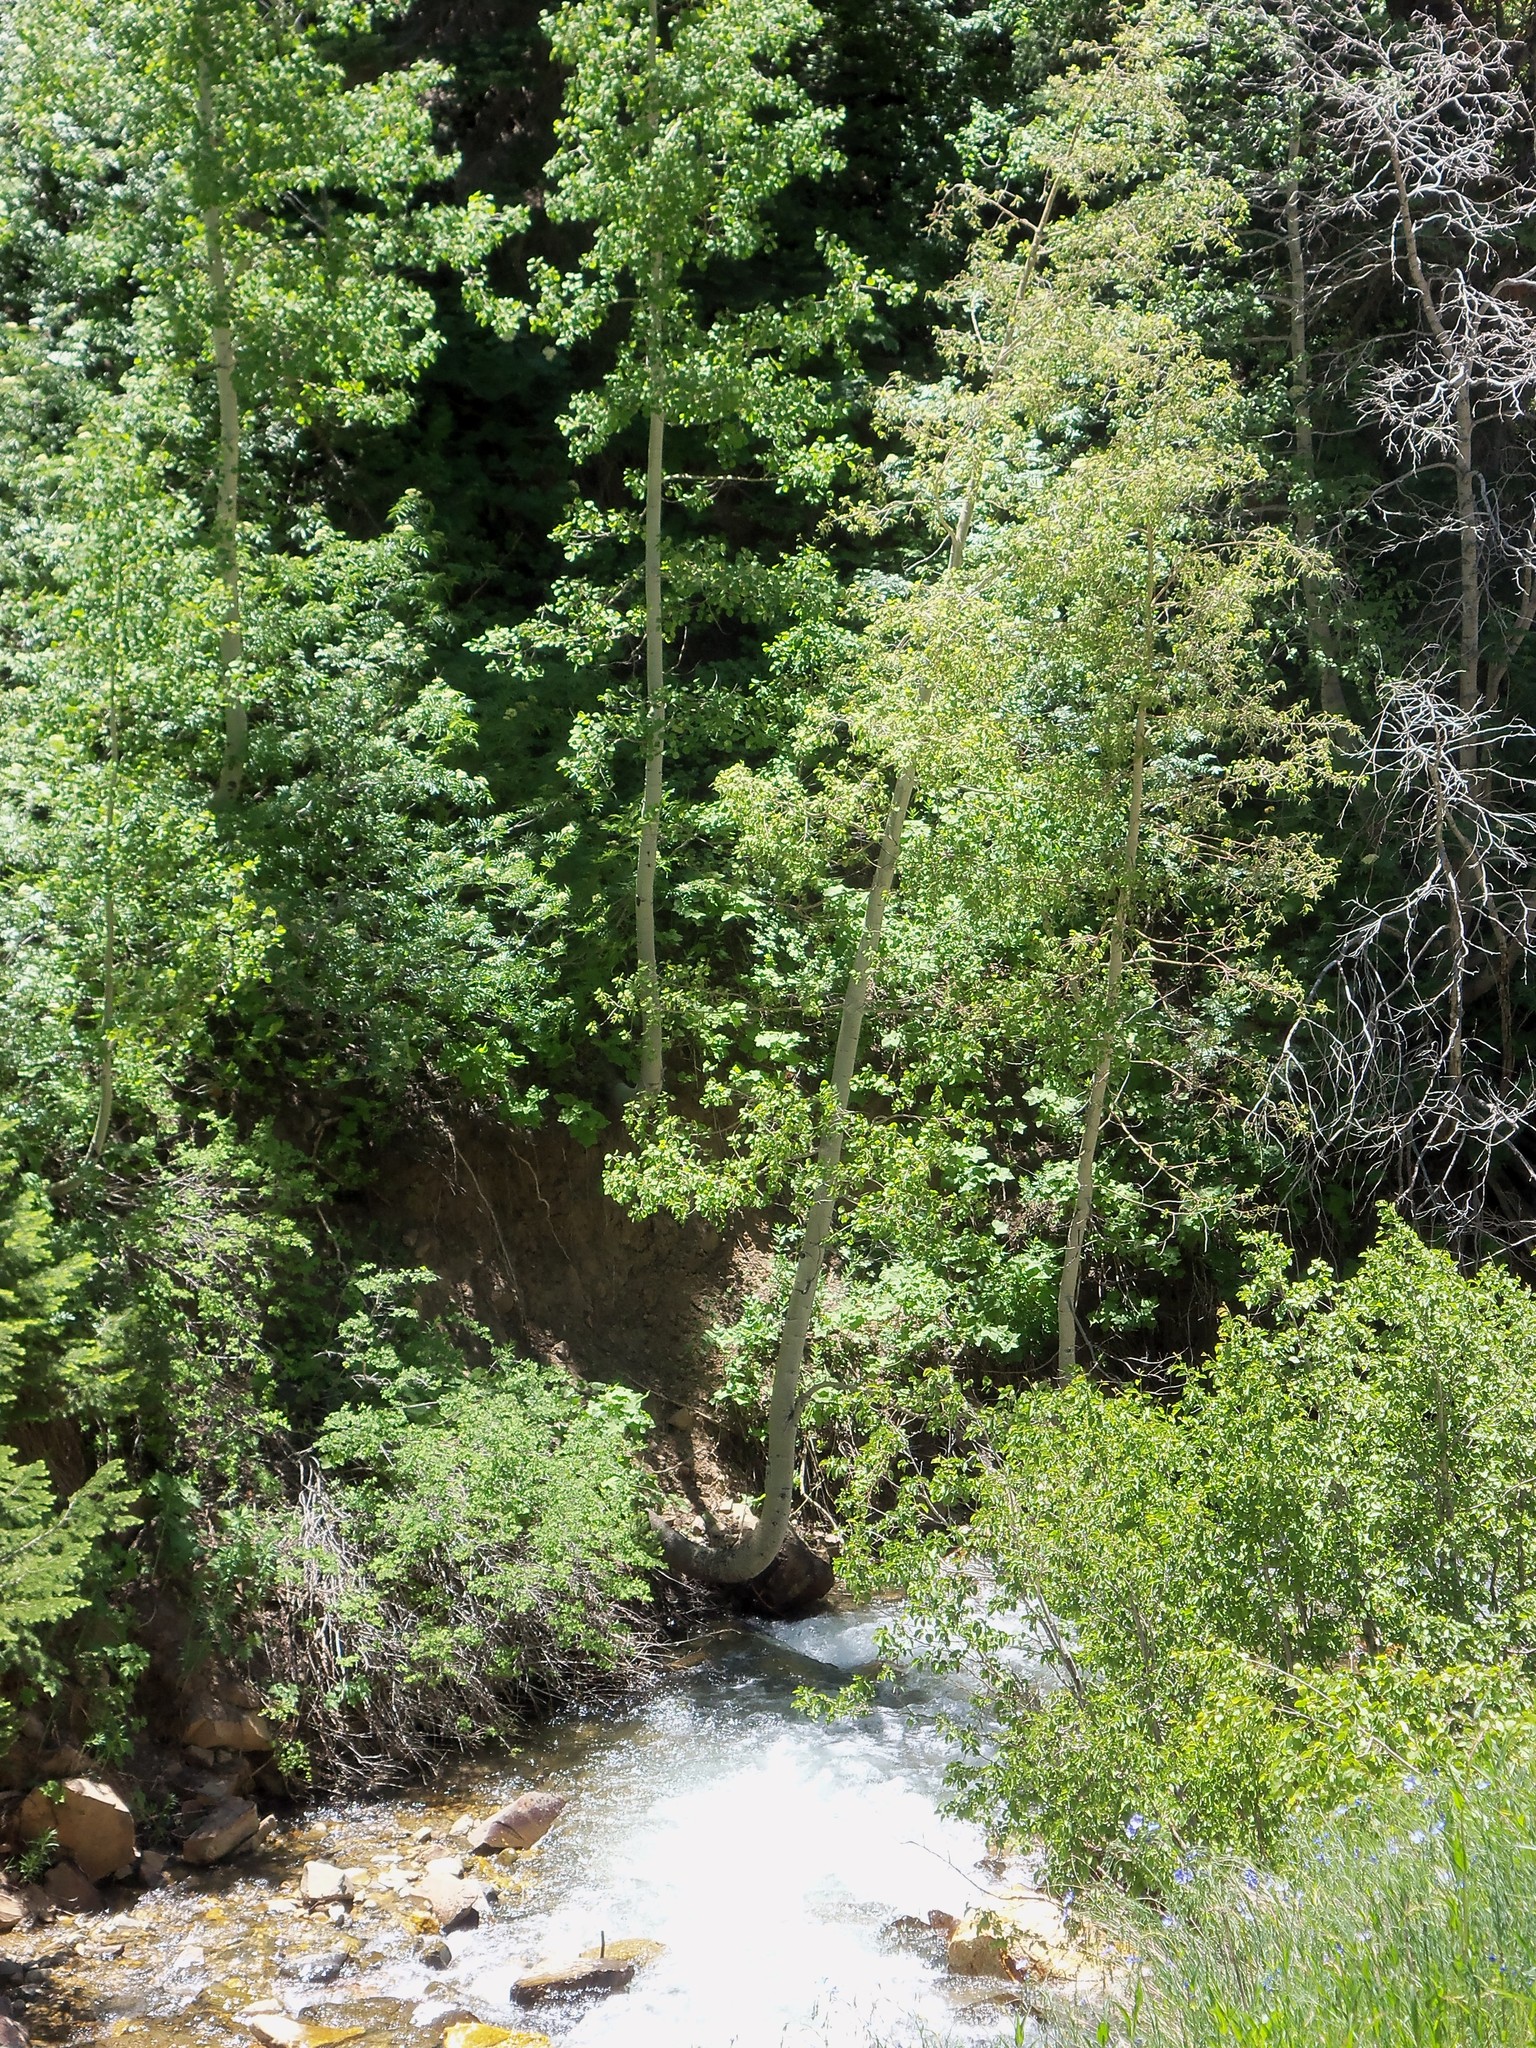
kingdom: Plantae
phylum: Tracheophyta
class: Magnoliopsida
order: Malpighiales
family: Salicaceae
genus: Populus
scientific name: Populus tremuloides
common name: Quaking aspen
